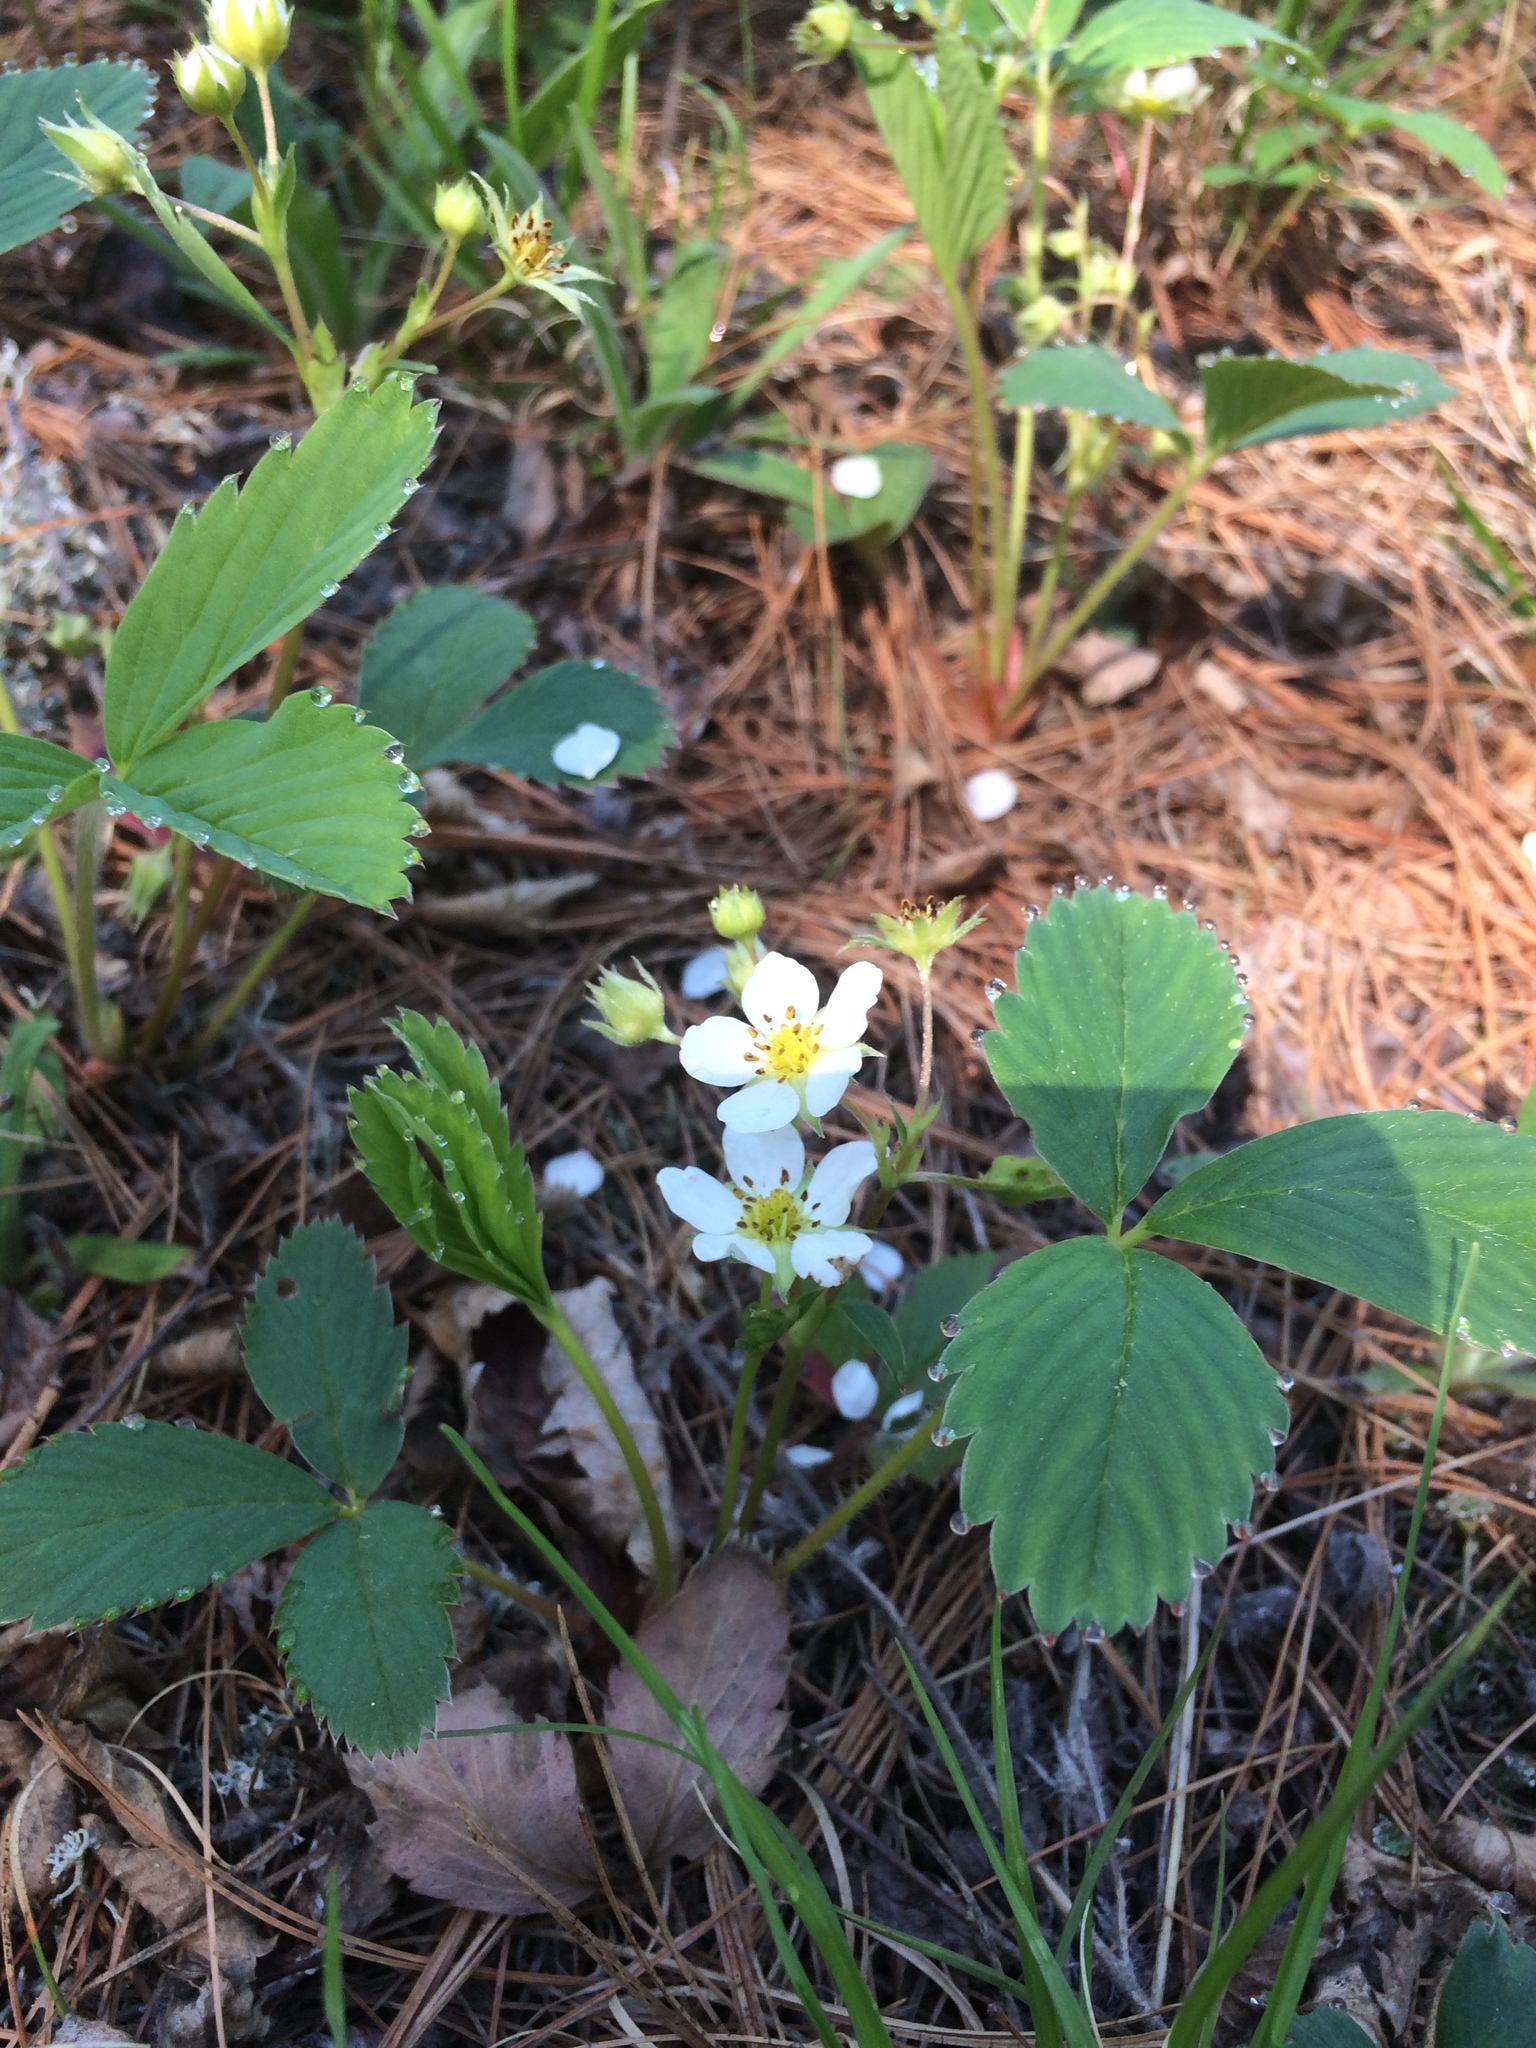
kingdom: Plantae
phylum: Tracheophyta
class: Magnoliopsida
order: Rosales
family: Rosaceae
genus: Fragaria
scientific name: Fragaria virginiana
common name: Thickleaved wild strawberry
